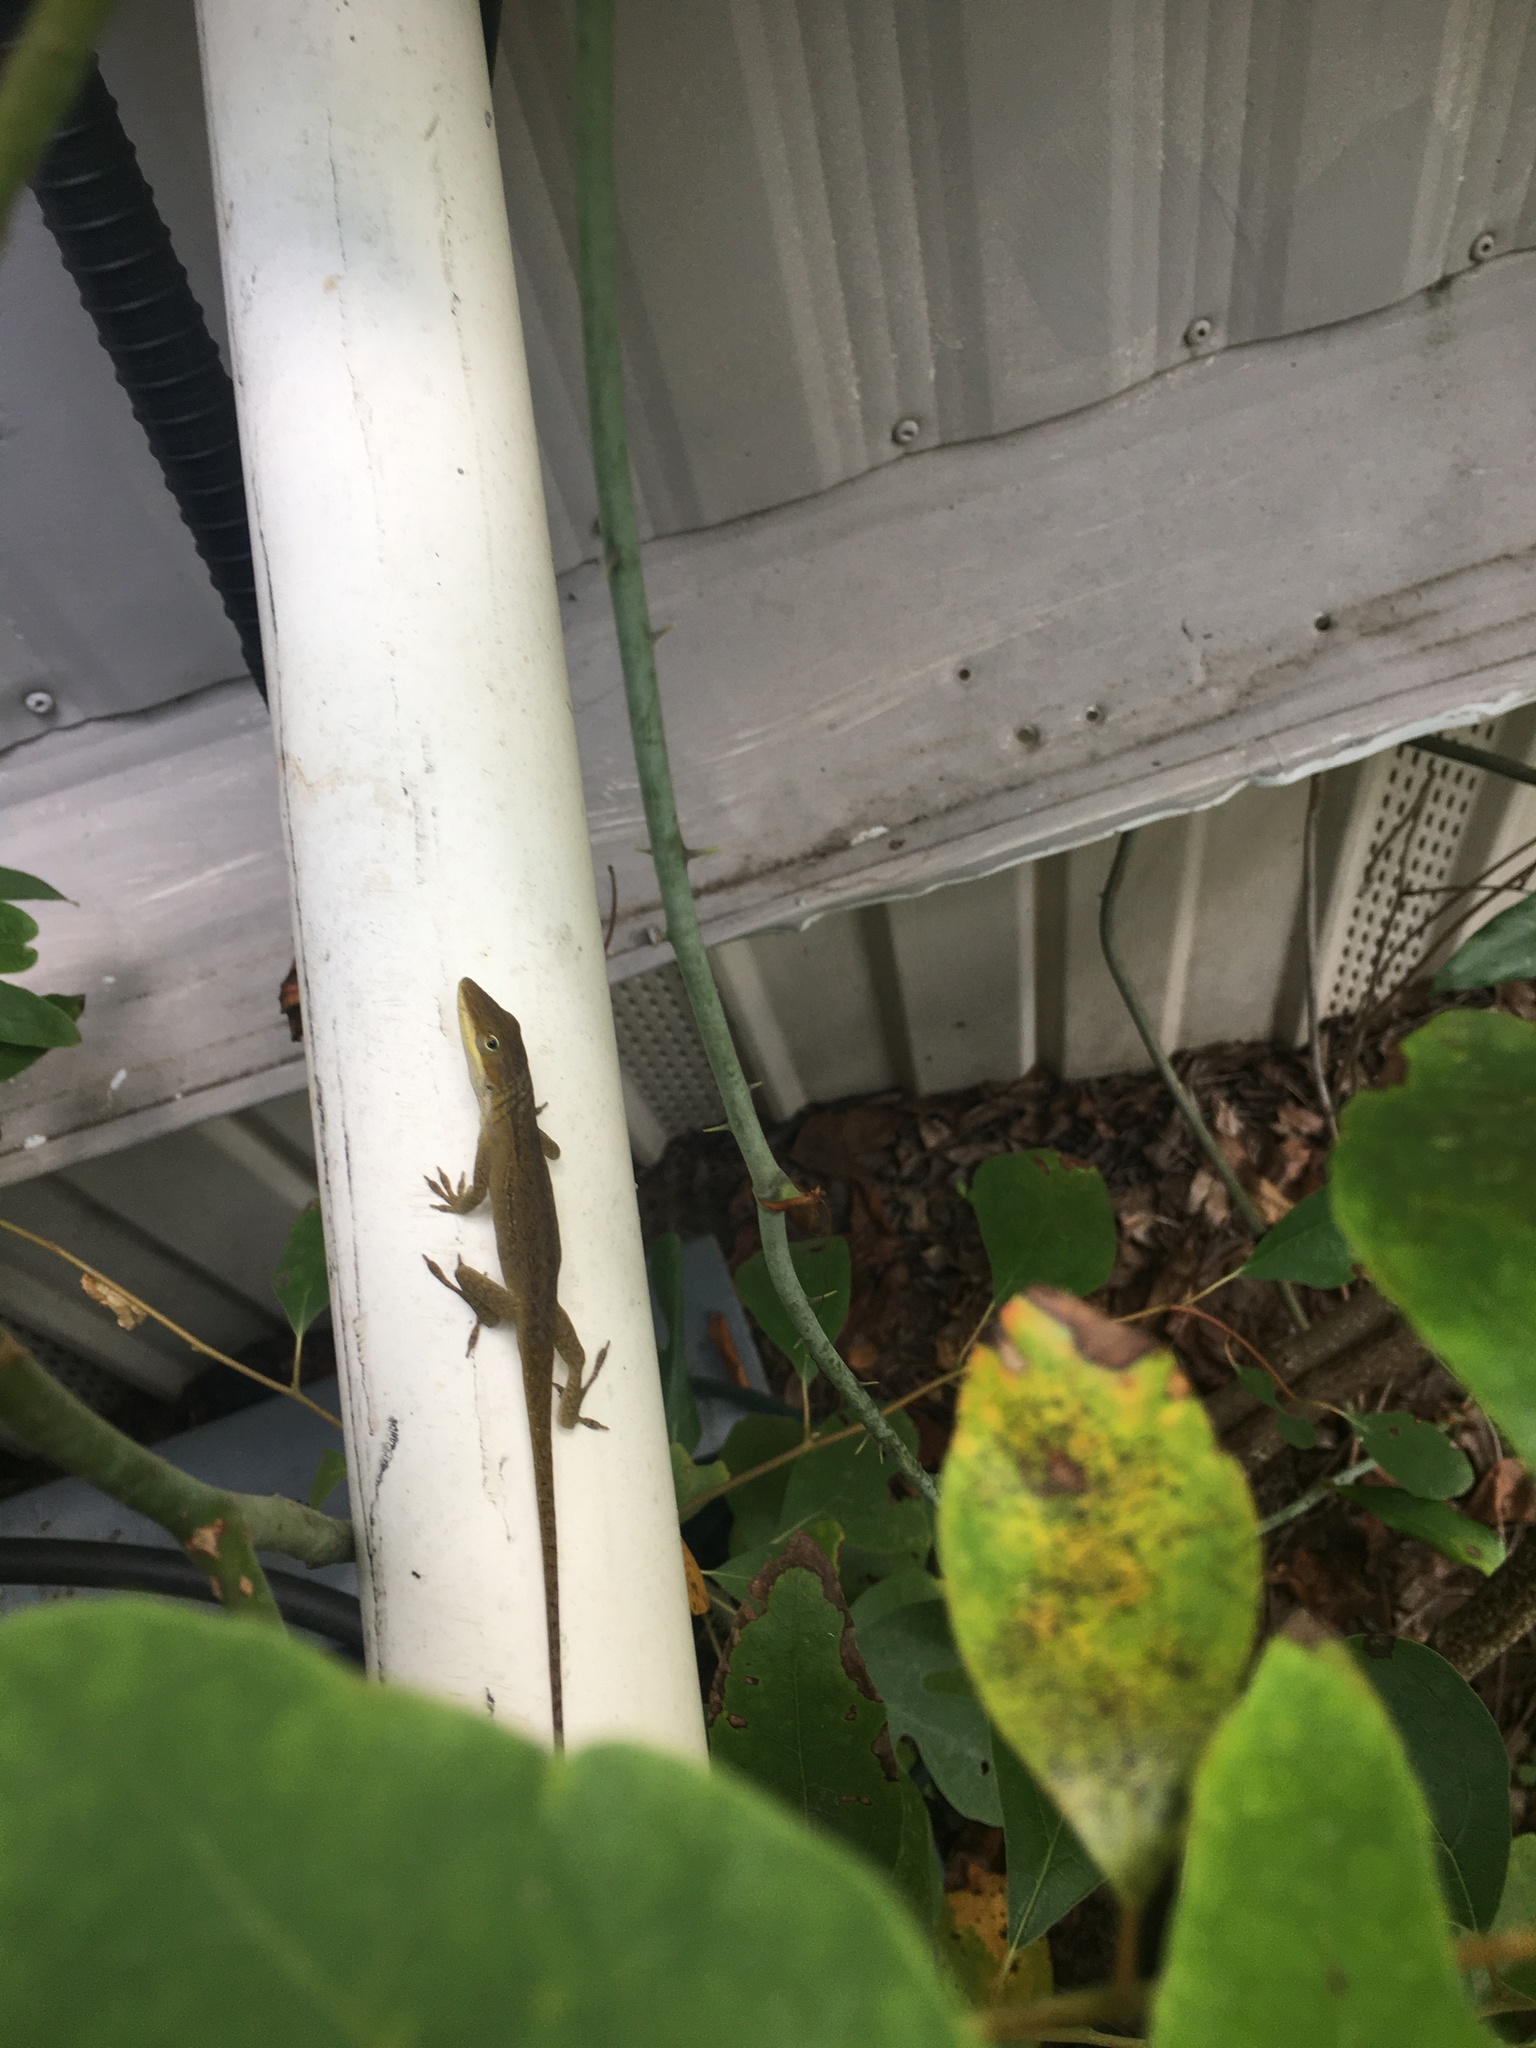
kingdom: Animalia
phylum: Chordata
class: Squamata
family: Dactyloidae
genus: Anolis
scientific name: Anolis carolinensis
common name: Green anole
